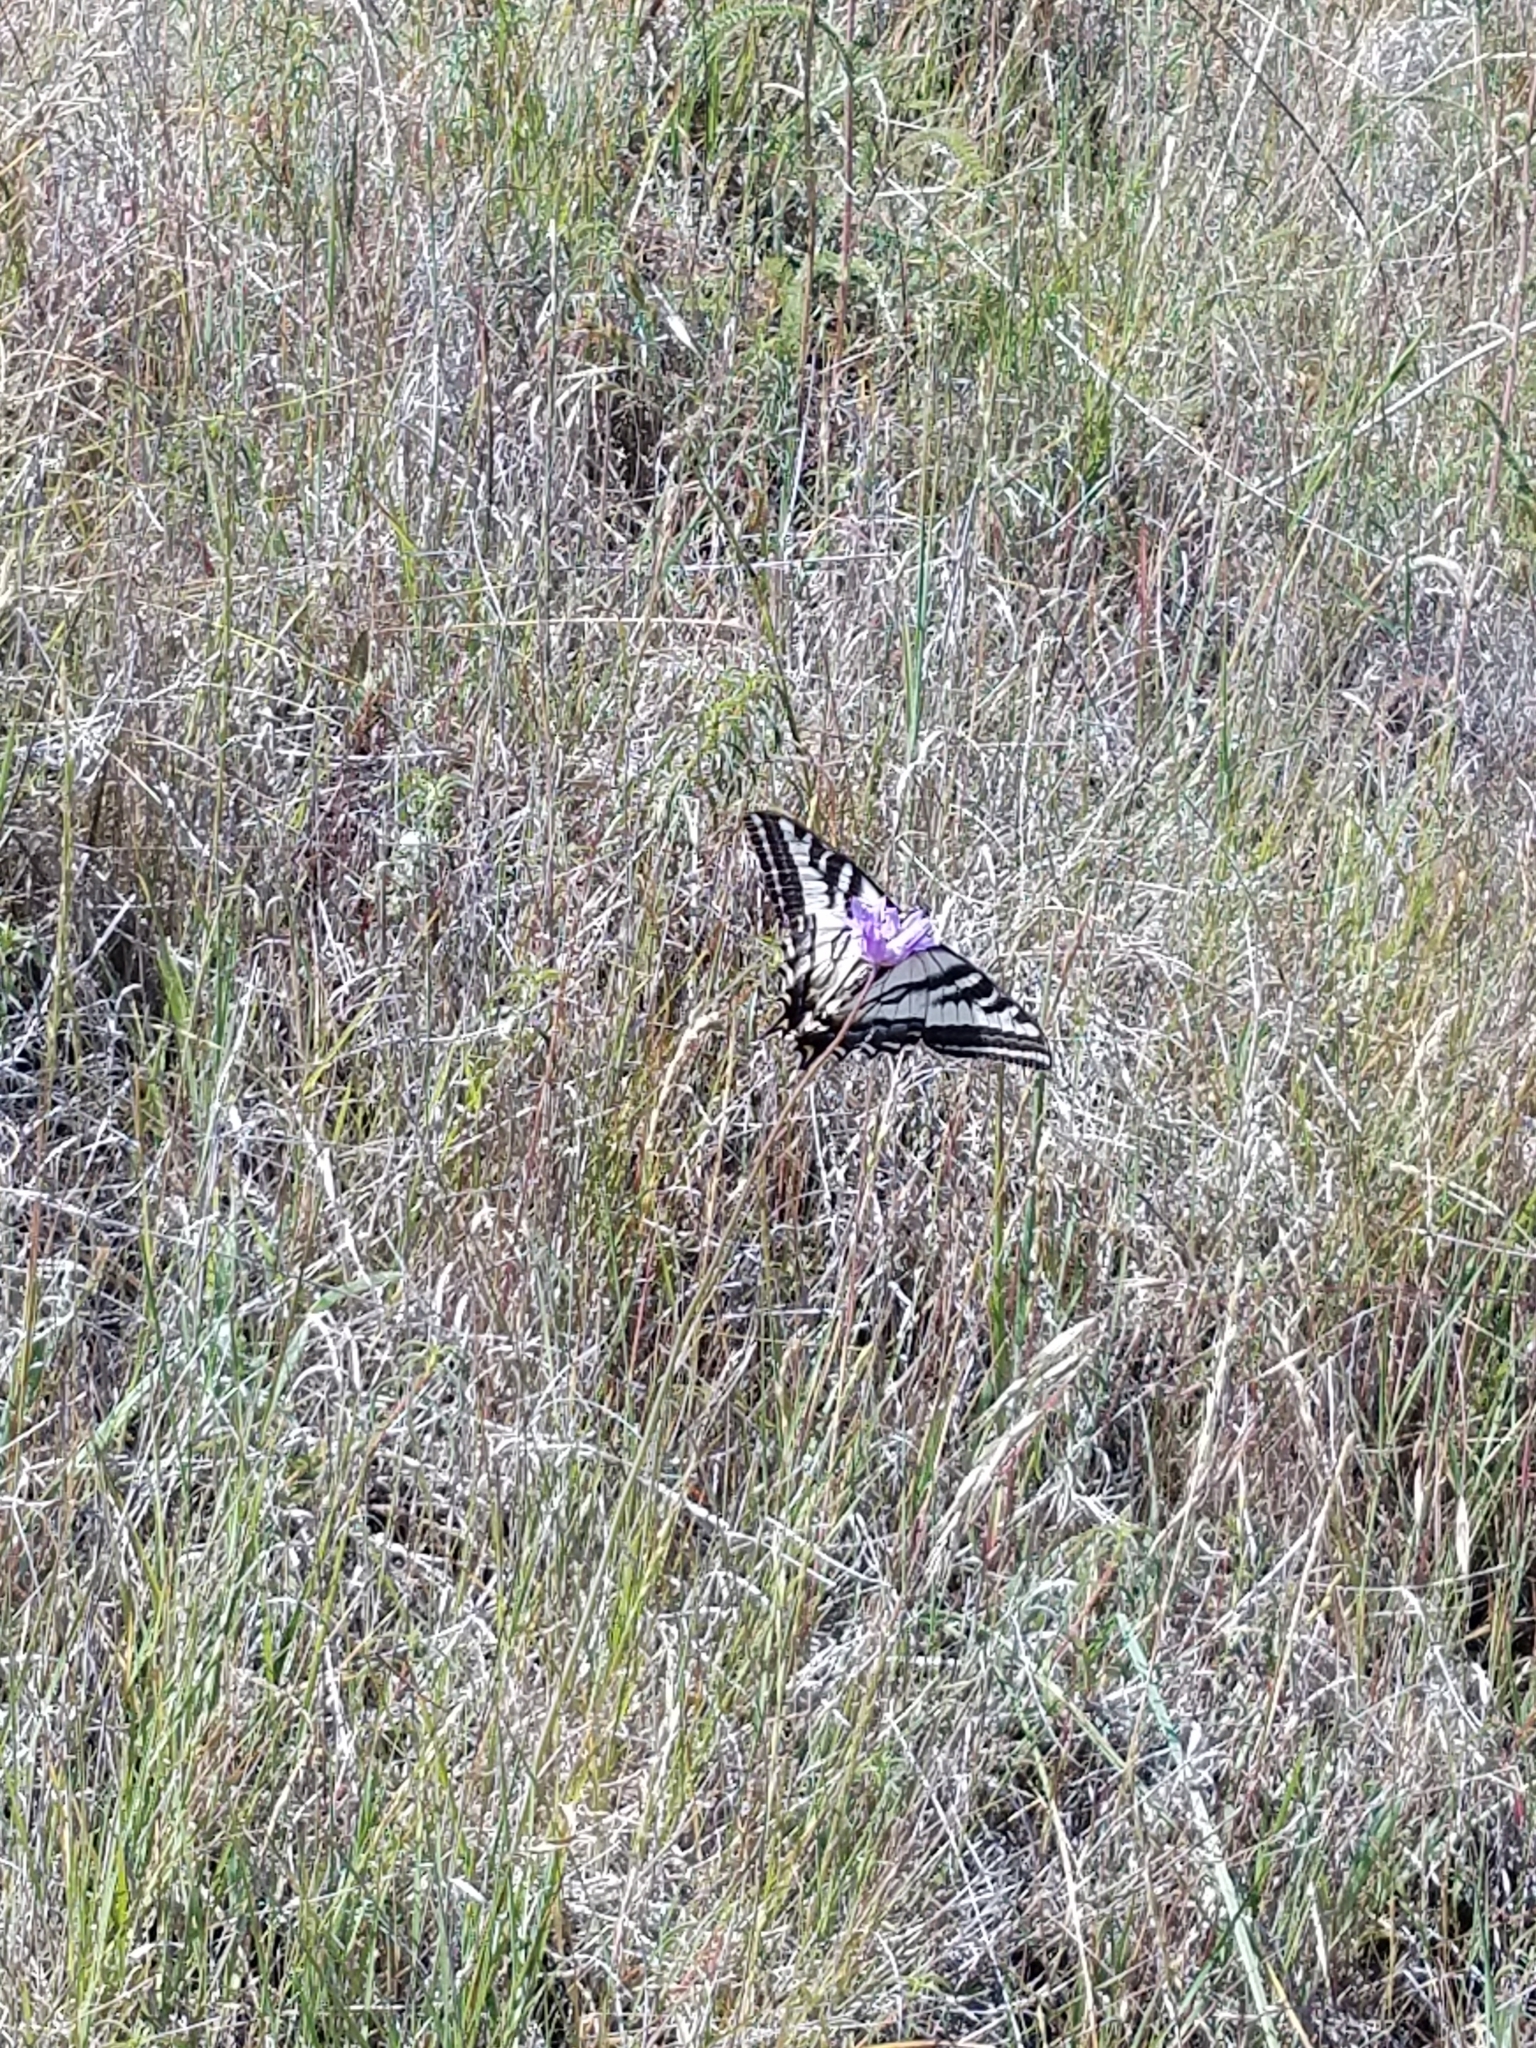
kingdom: Animalia
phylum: Arthropoda
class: Insecta
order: Lepidoptera
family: Papilionidae
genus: Papilio
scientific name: Papilio eurymedon
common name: Pale tiger swallowtail
